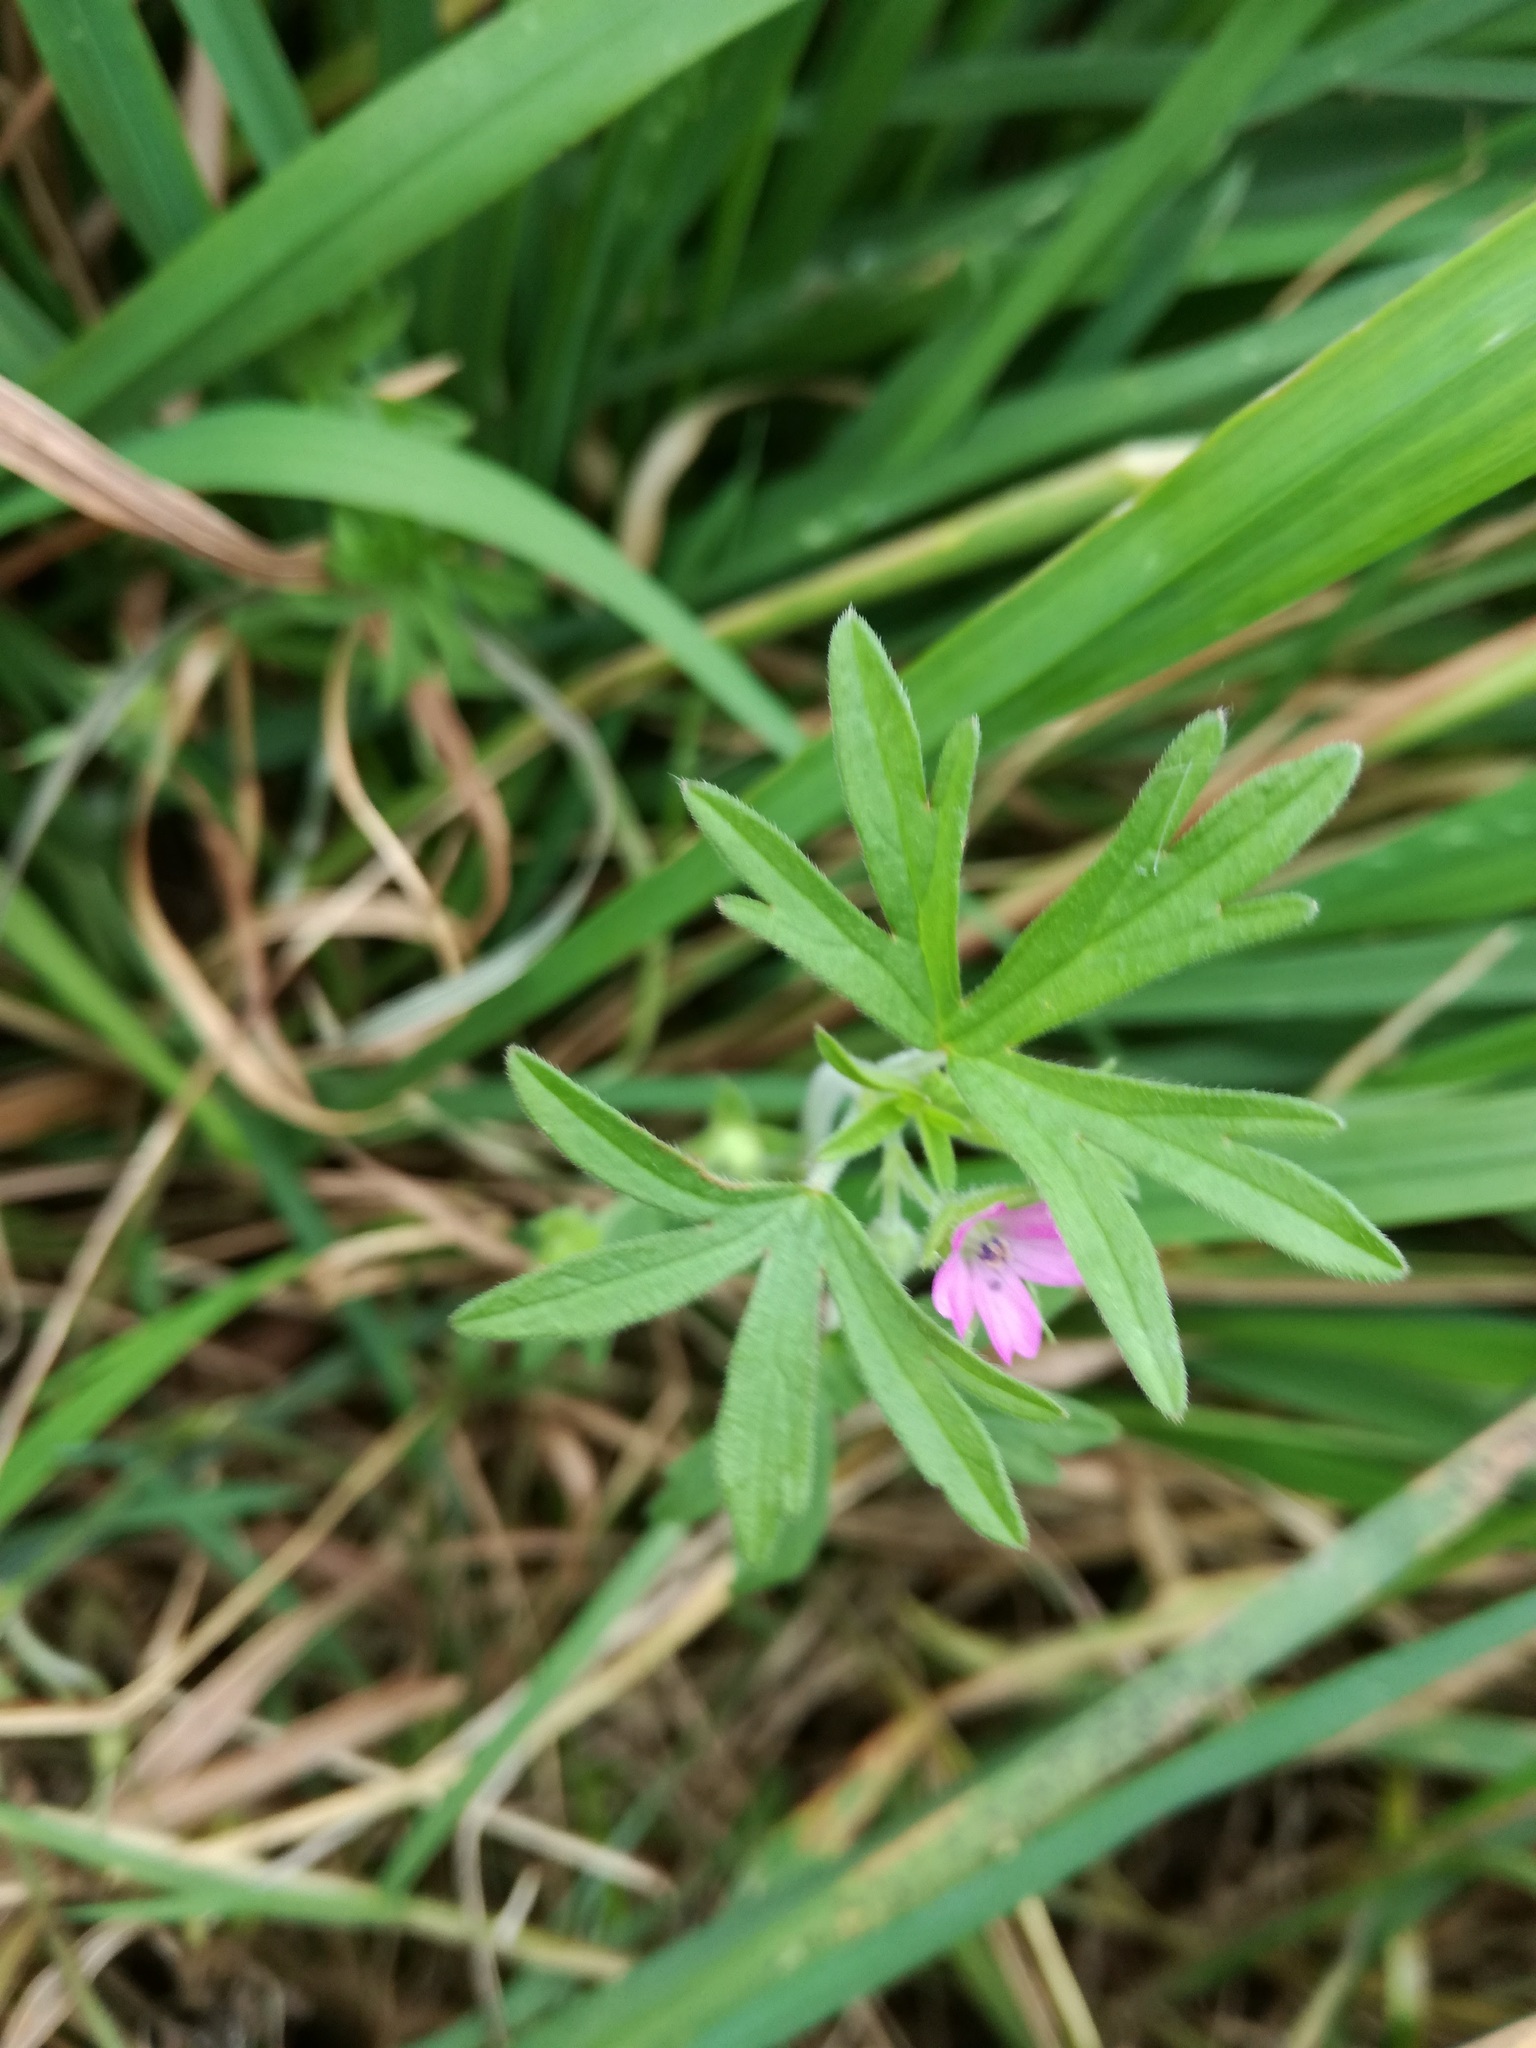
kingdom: Plantae
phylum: Tracheophyta
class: Magnoliopsida
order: Geraniales
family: Geraniaceae
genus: Geranium
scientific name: Geranium dissectum
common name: Cut-leaved crane's-bill
